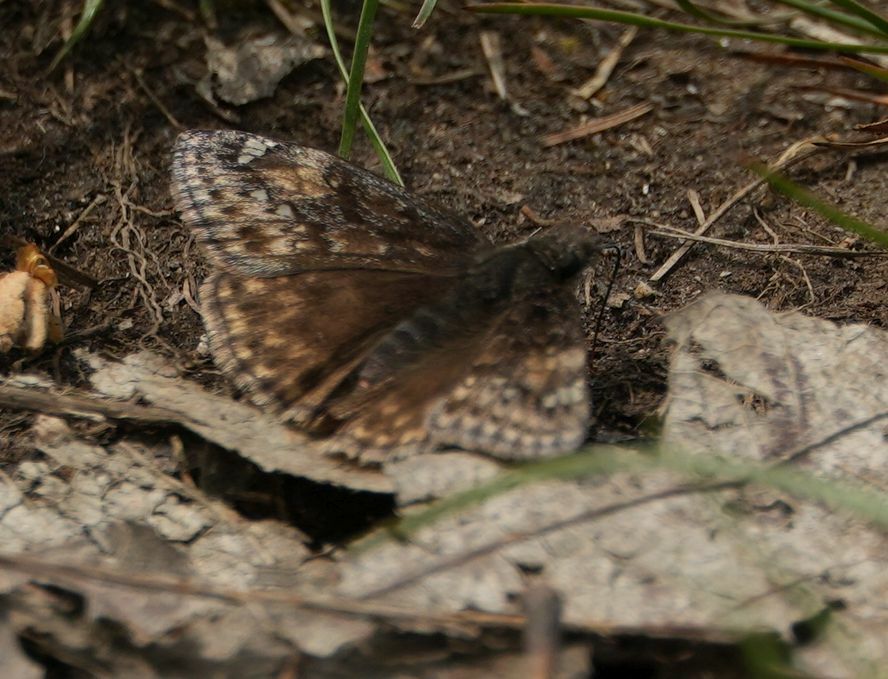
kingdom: Animalia
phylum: Arthropoda
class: Insecta
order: Lepidoptera
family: Hesperiidae
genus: Erynnis
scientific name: Erynnis juvenalis
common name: Juvenal's duskywing
